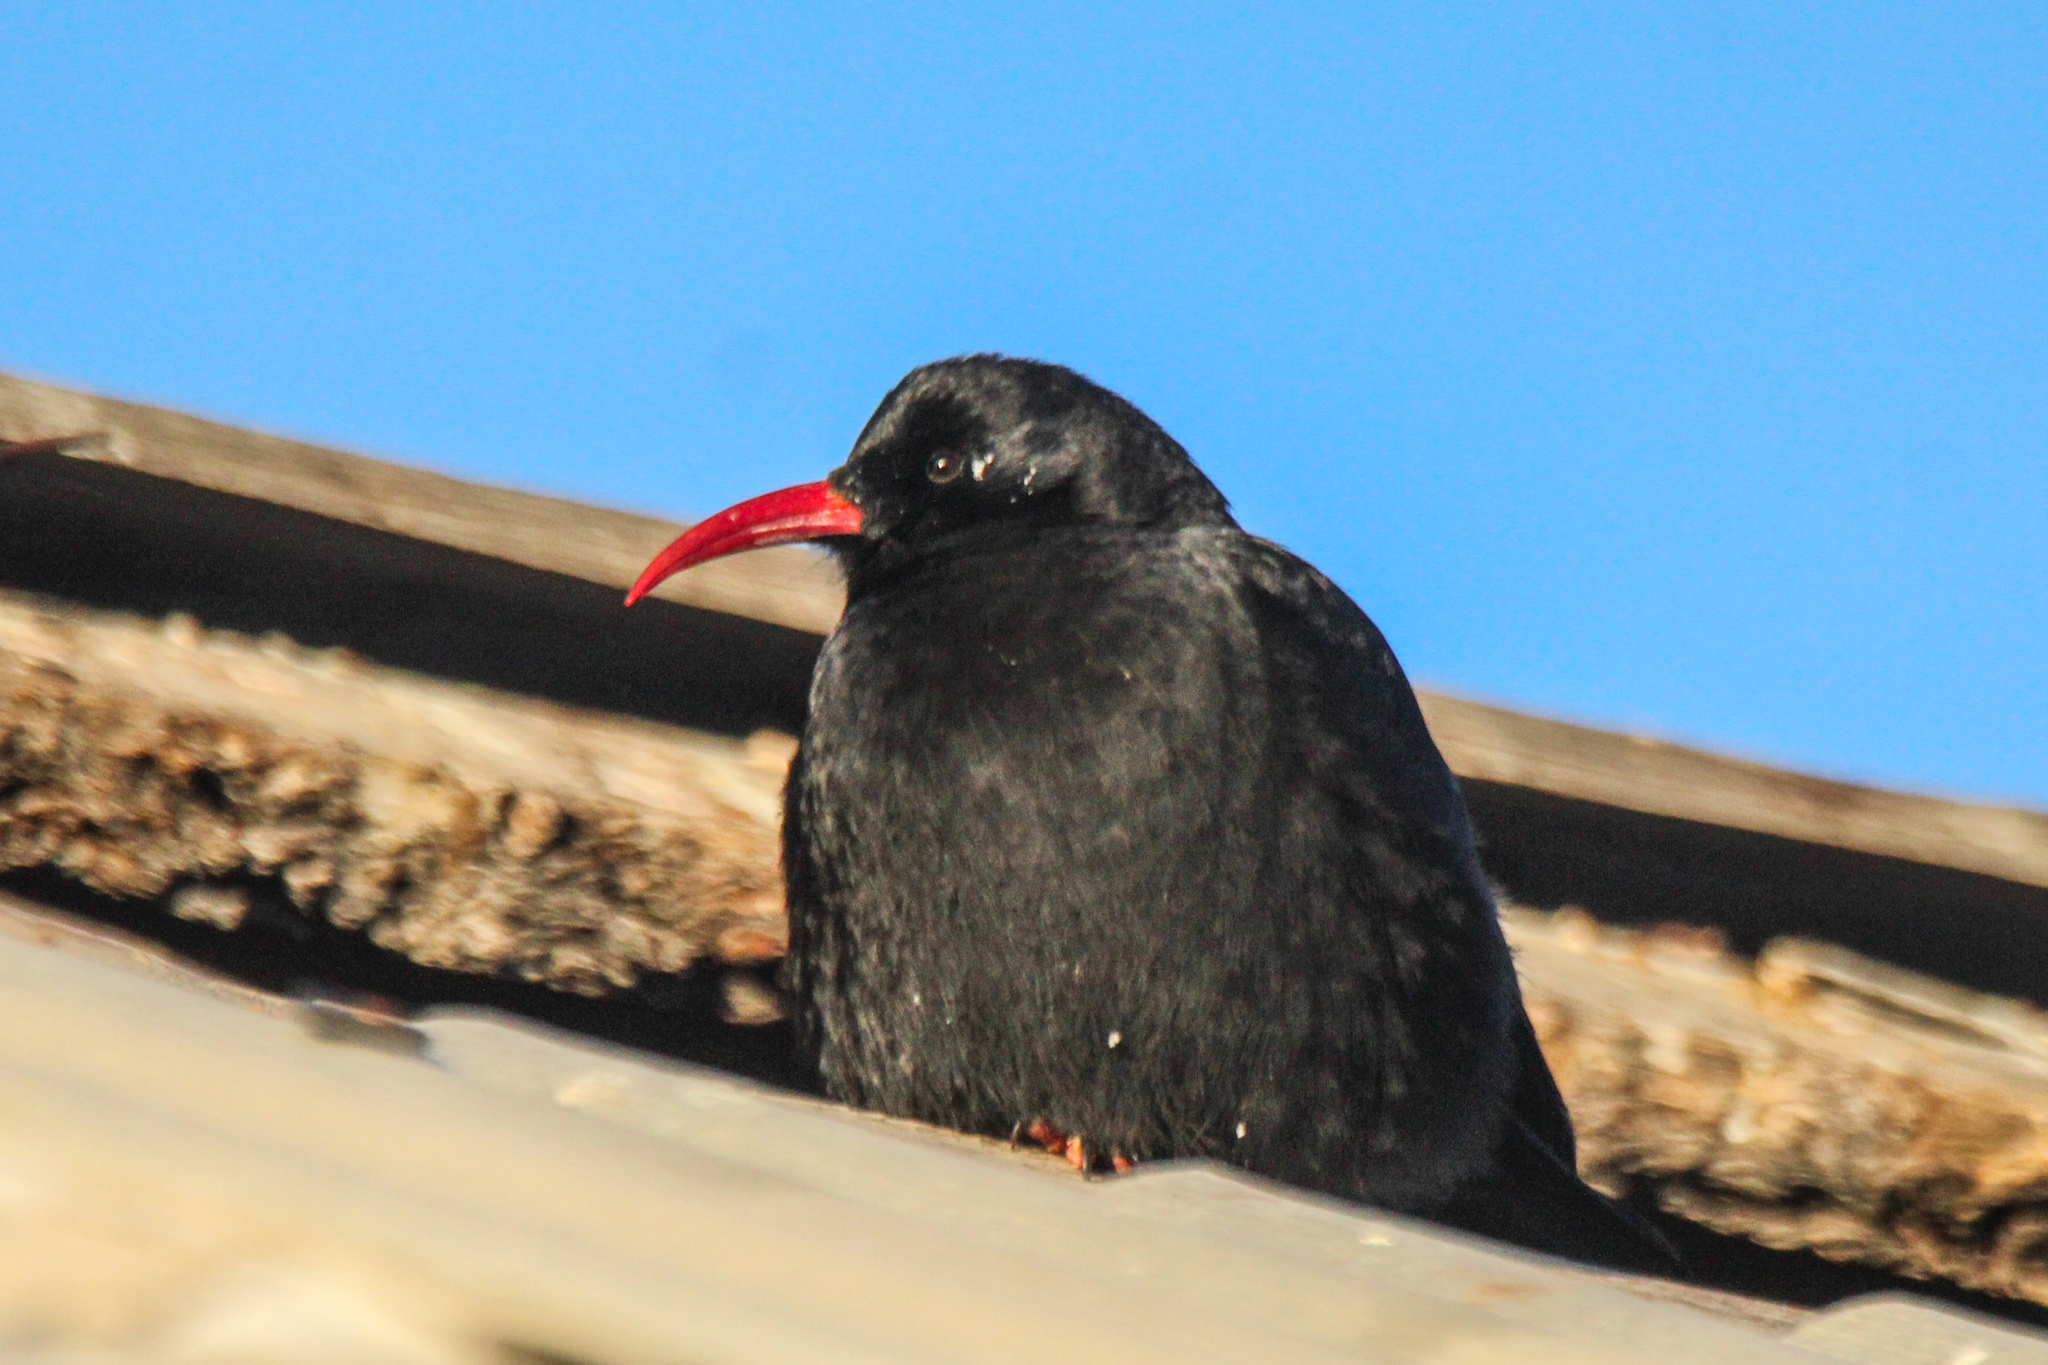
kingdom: Animalia
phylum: Chordata
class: Aves
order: Passeriformes
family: Corvidae
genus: Pyrrhocorax
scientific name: Pyrrhocorax pyrrhocorax
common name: Red-billed chough
